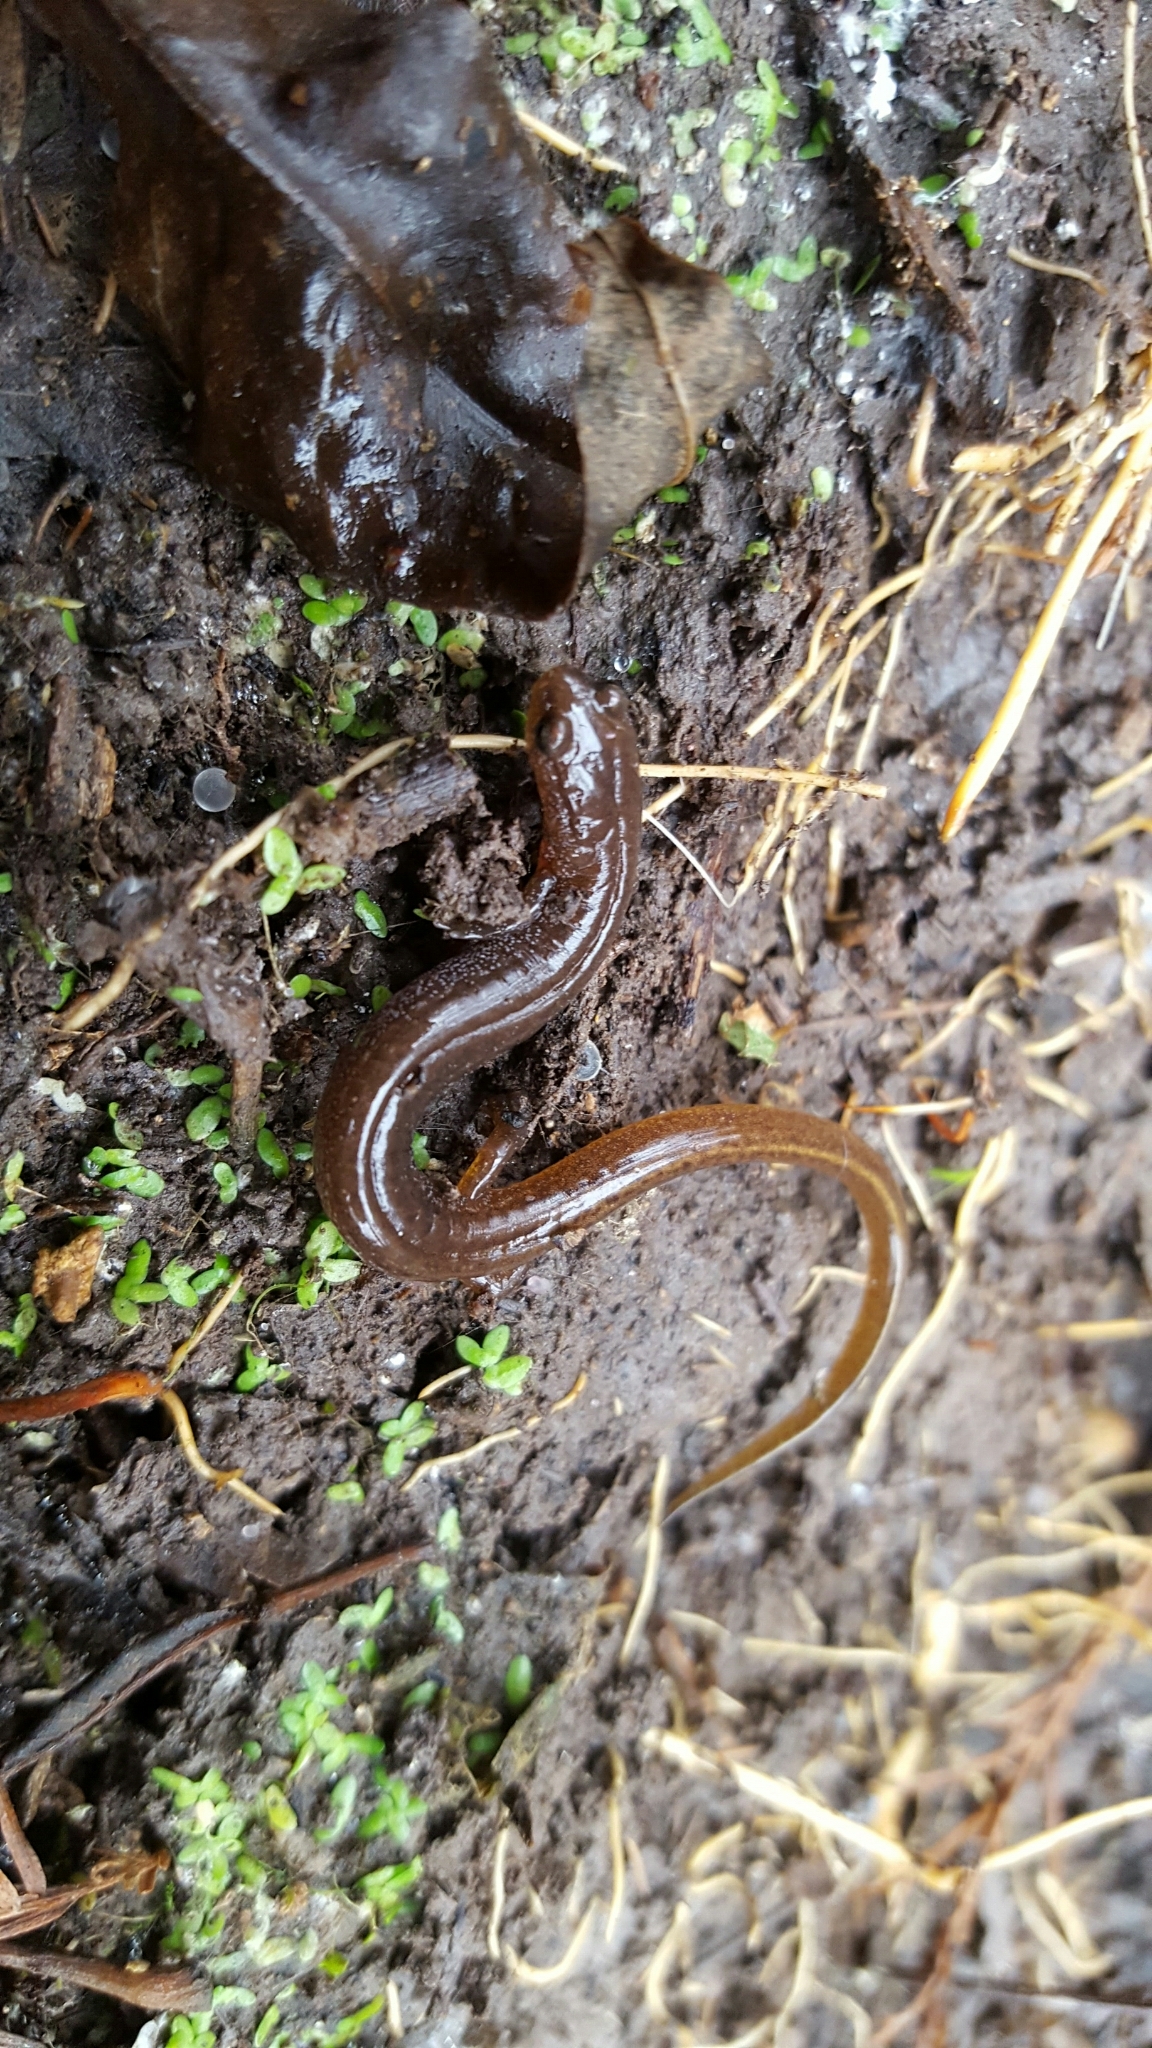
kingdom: Animalia
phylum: Chordata
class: Amphibia
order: Caudata
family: Plethodontidae
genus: Eurycea
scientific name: Eurycea multiplicata
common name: Many-ribbed salamander
